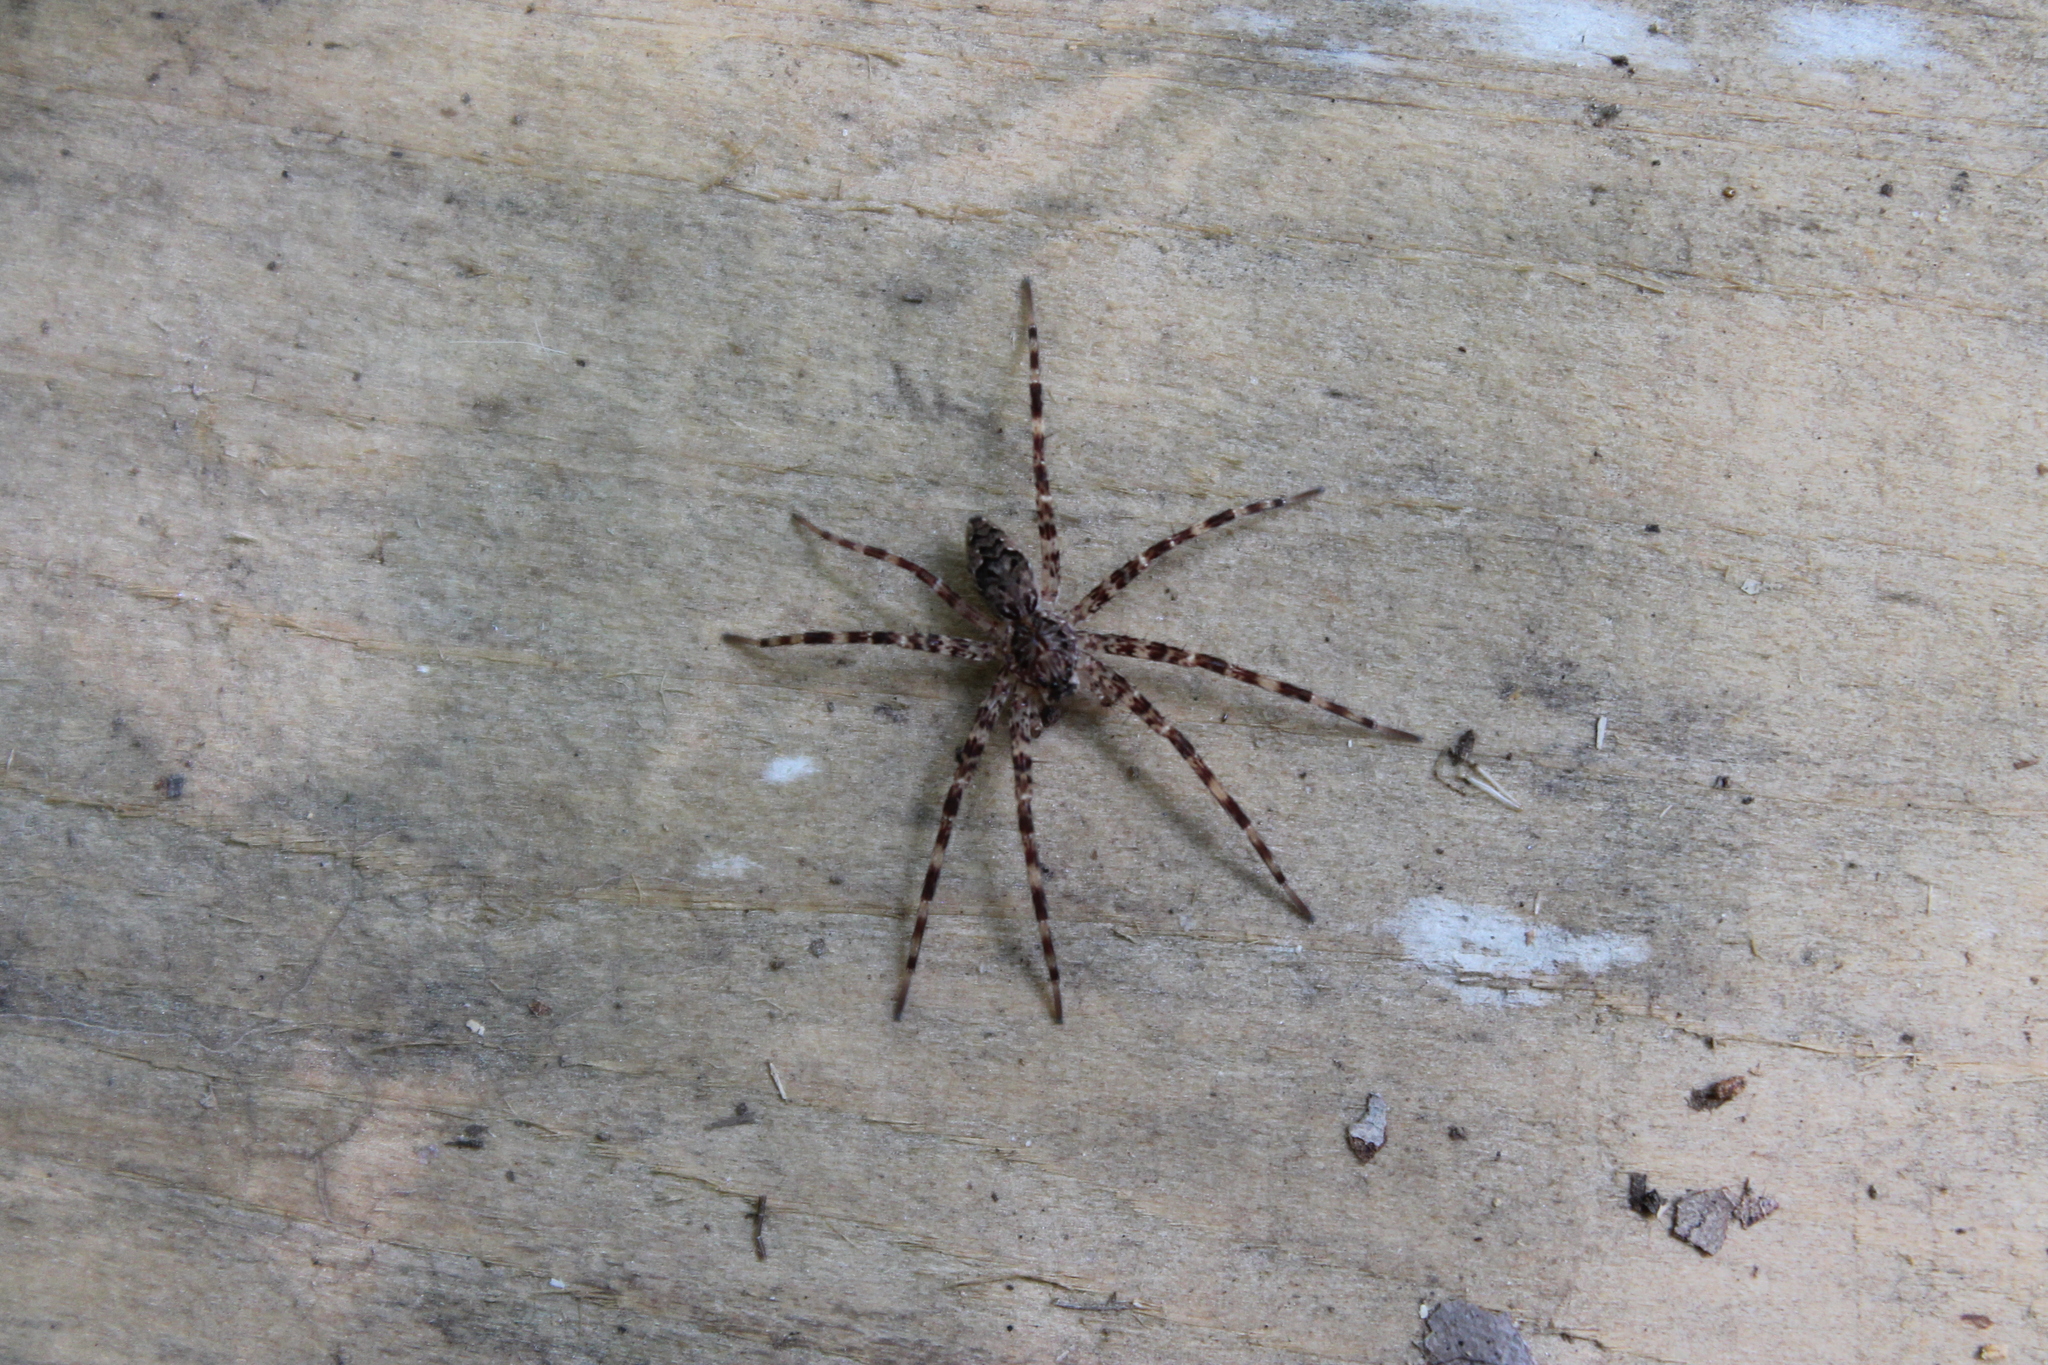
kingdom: Animalia
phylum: Arthropoda
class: Arachnida
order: Araneae
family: Pisauridae
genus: Dolomedes
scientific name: Dolomedes tenebrosus
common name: Dark fishing spider
